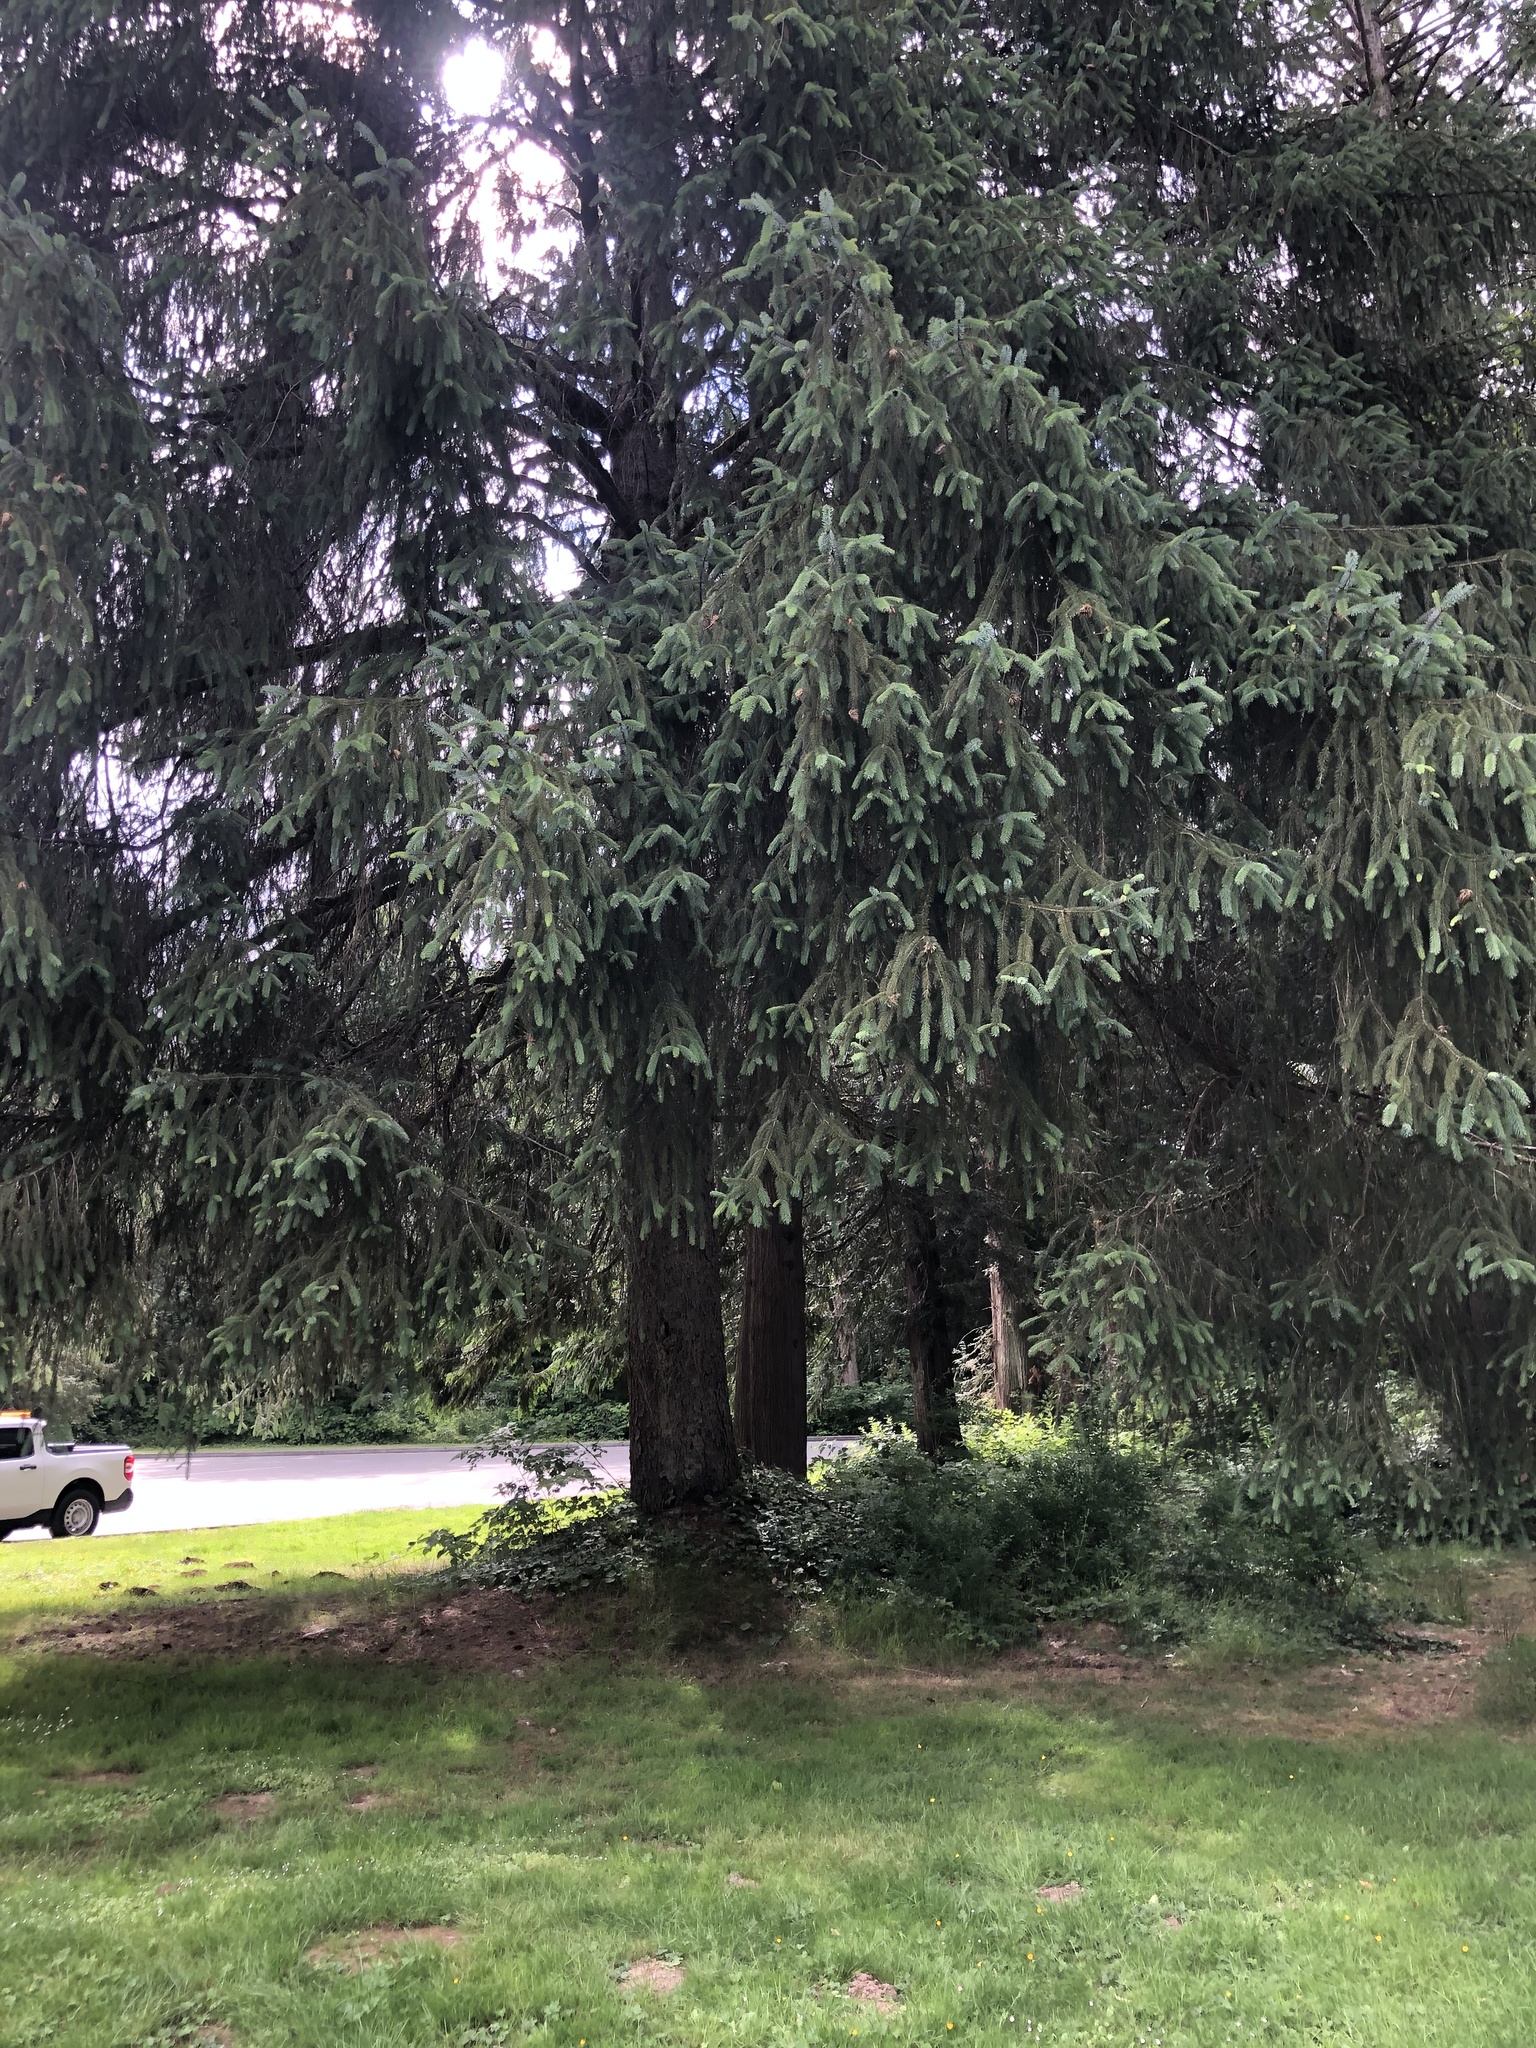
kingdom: Plantae
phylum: Tracheophyta
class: Pinopsida
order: Pinales
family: Pinaceae
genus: Picea
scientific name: Picea sitchensis
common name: Sitka spruce
